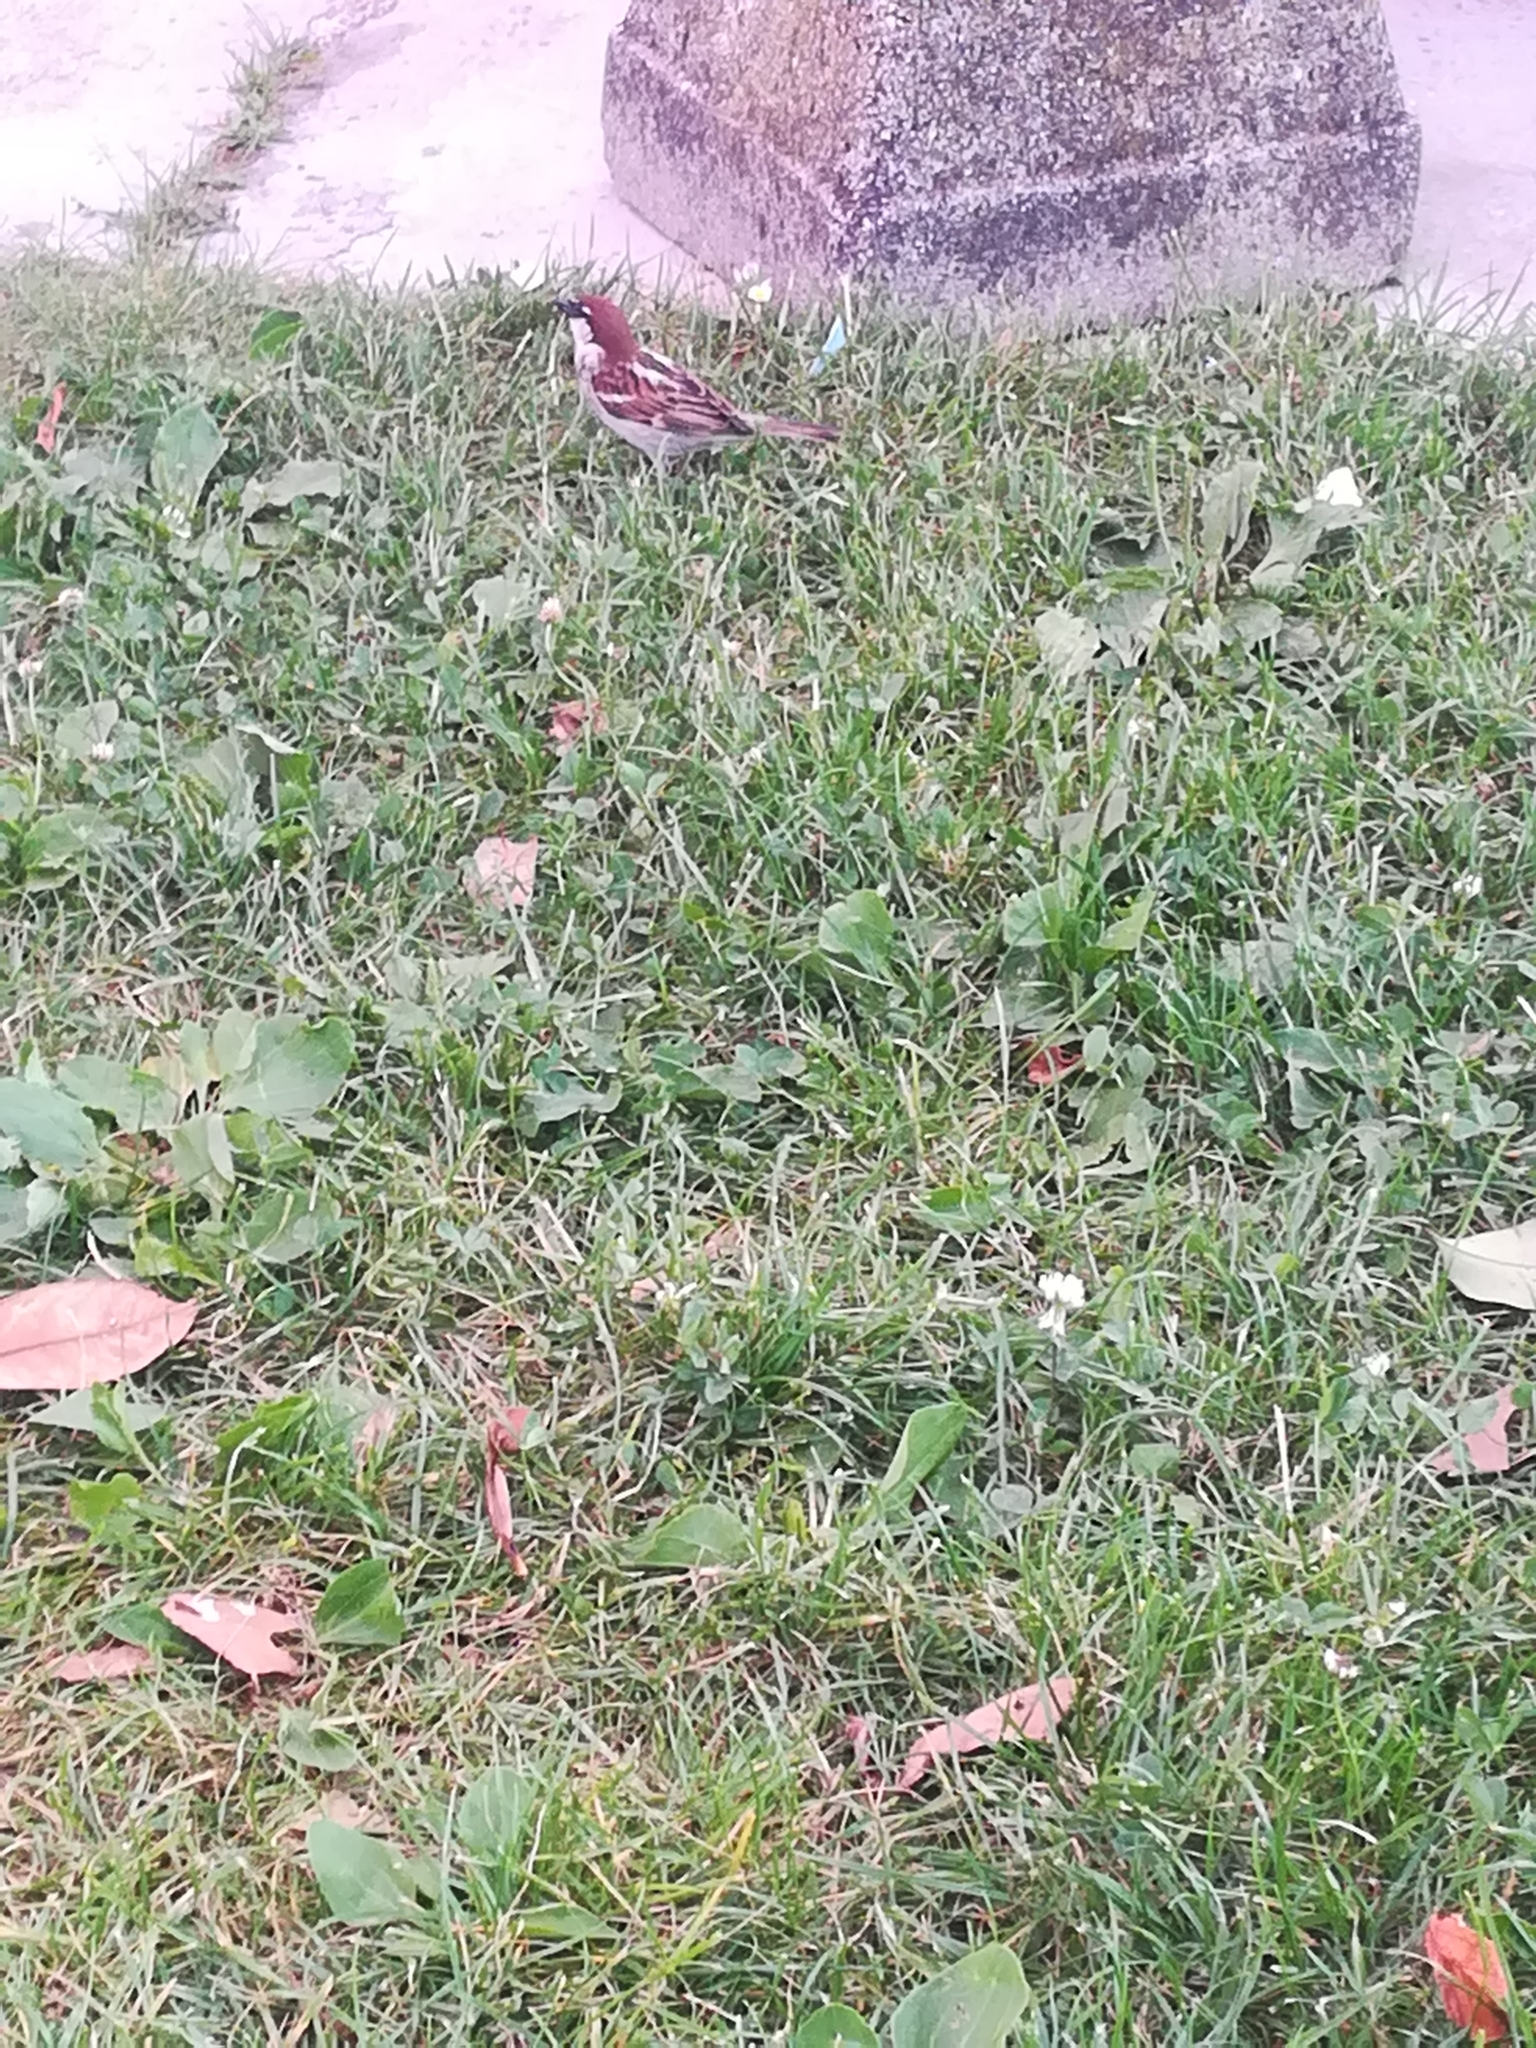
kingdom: Animalia
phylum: Chordata
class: Aves
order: Passeriformes
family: Passeridae
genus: Passer
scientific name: Passer italiae
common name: Italian sparrow
